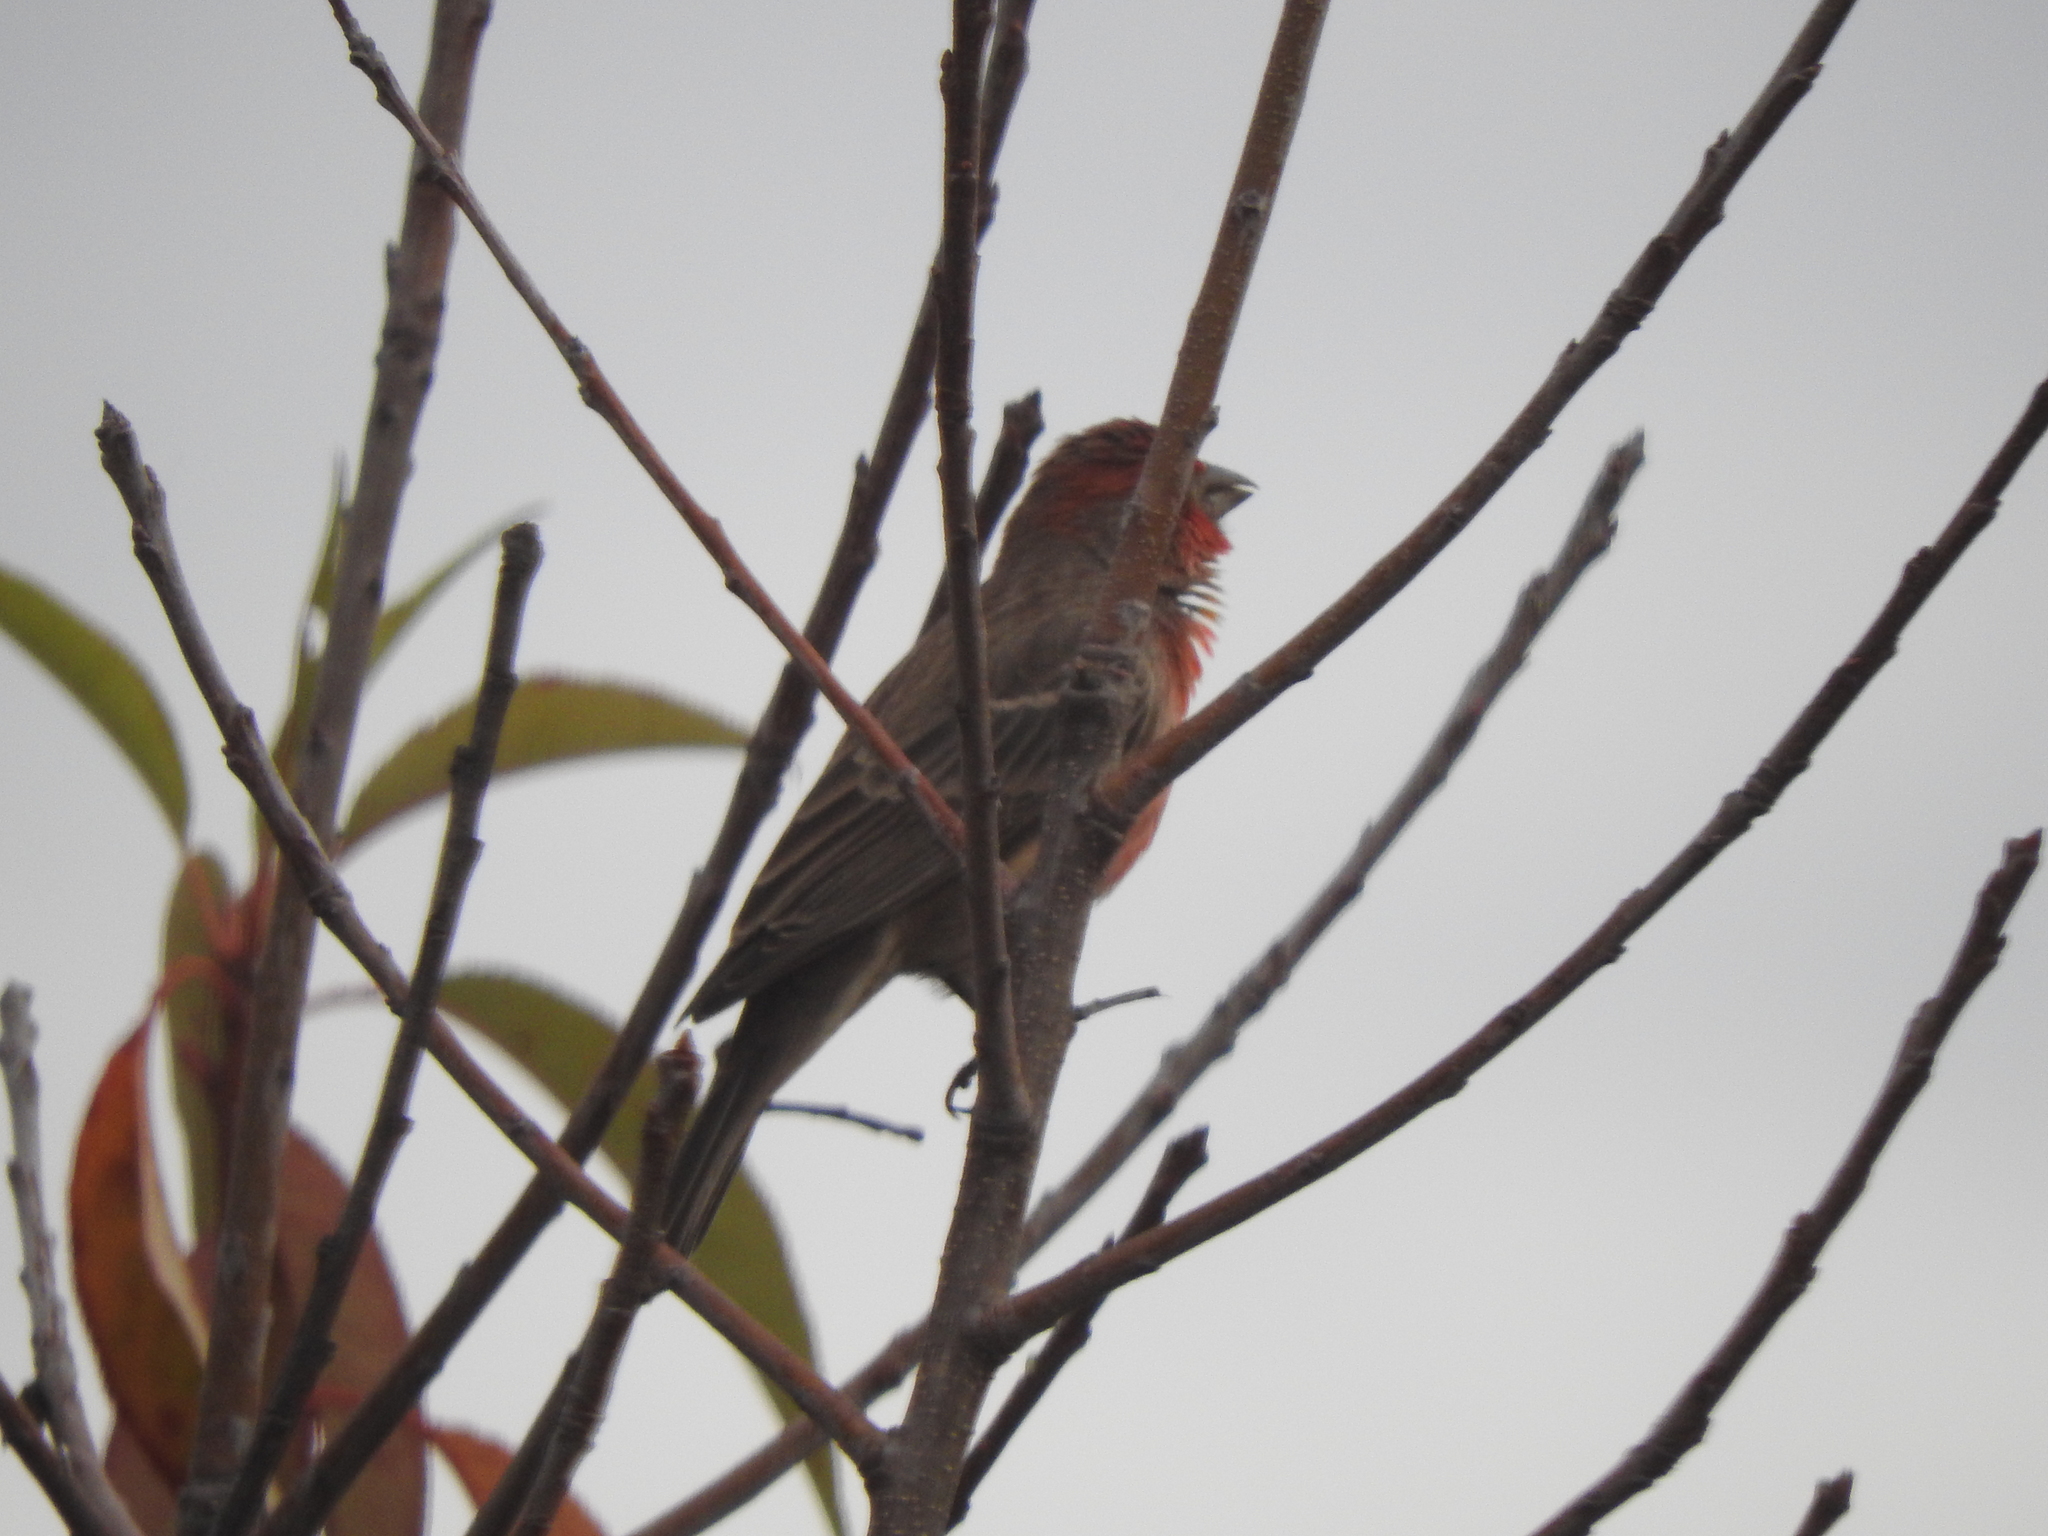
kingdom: Animalia
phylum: Chordata
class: Aves
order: Passeriformes
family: Fringillidae
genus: Haemorhous
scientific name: Haemorhous mexicanus
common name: House finch
